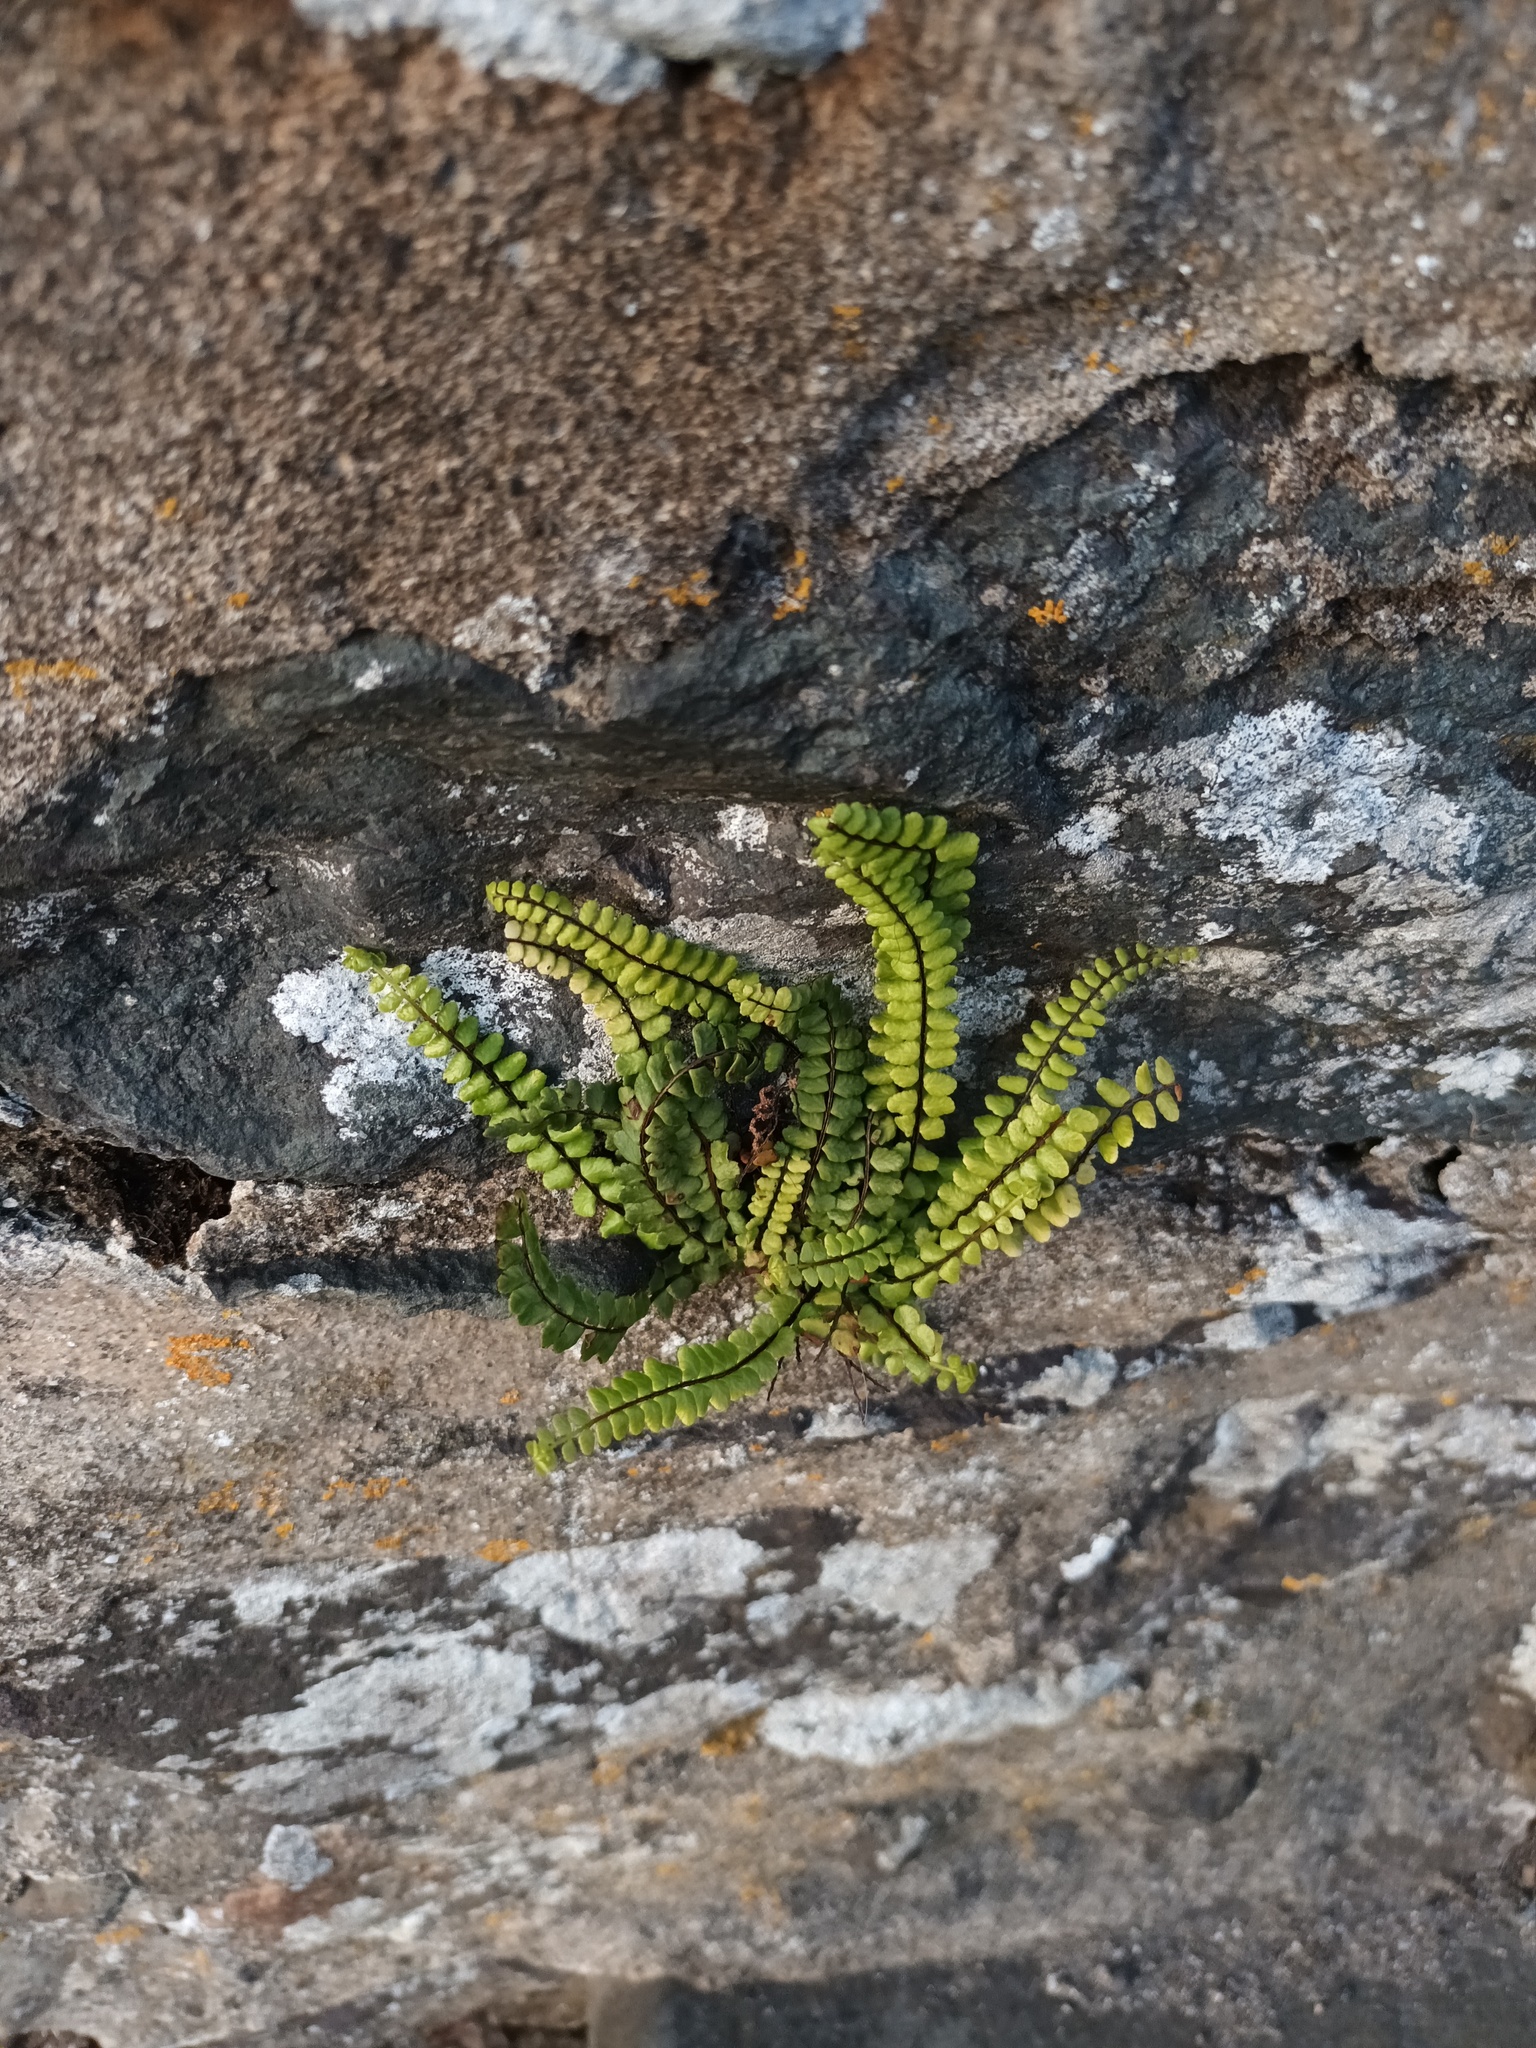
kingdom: Plantae
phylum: Tracheophyta
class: Polypodiopsida
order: Polypodiales
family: Aspleniaceae
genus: Asplenium
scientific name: Asplenium trichomanes
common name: Maidenhair spleenwort
